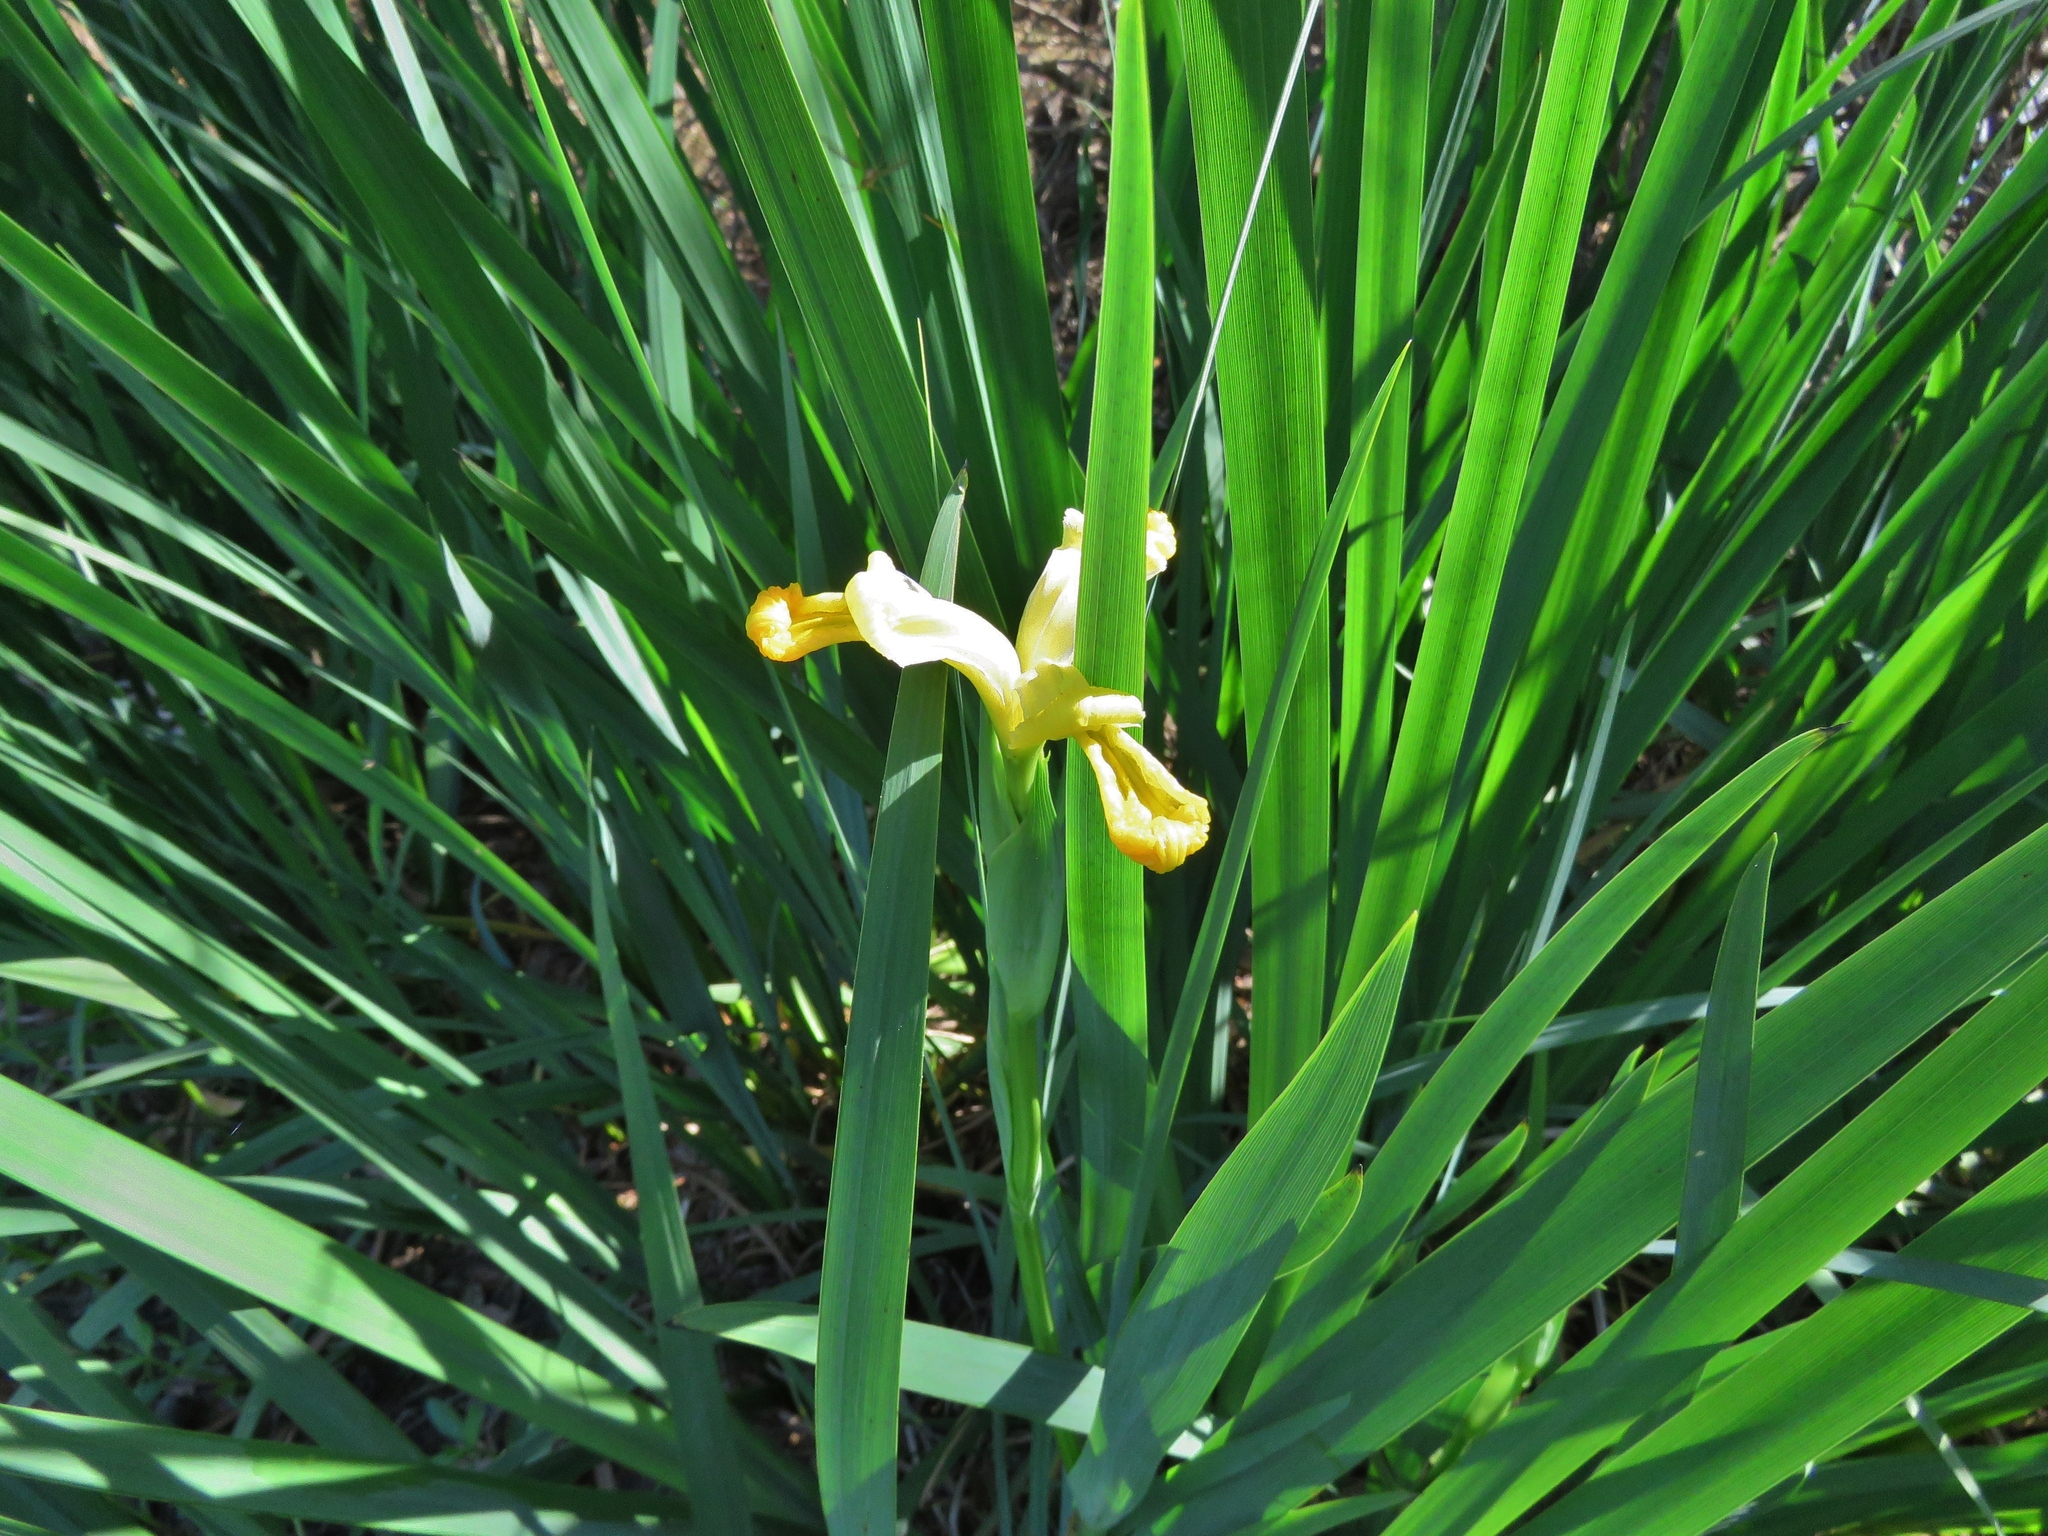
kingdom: Plantae
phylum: Tracheophyta
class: Liliopsida
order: Asparagales
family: Iridaceae
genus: Iris
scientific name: Iris pseudacorus
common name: Yellow flag
